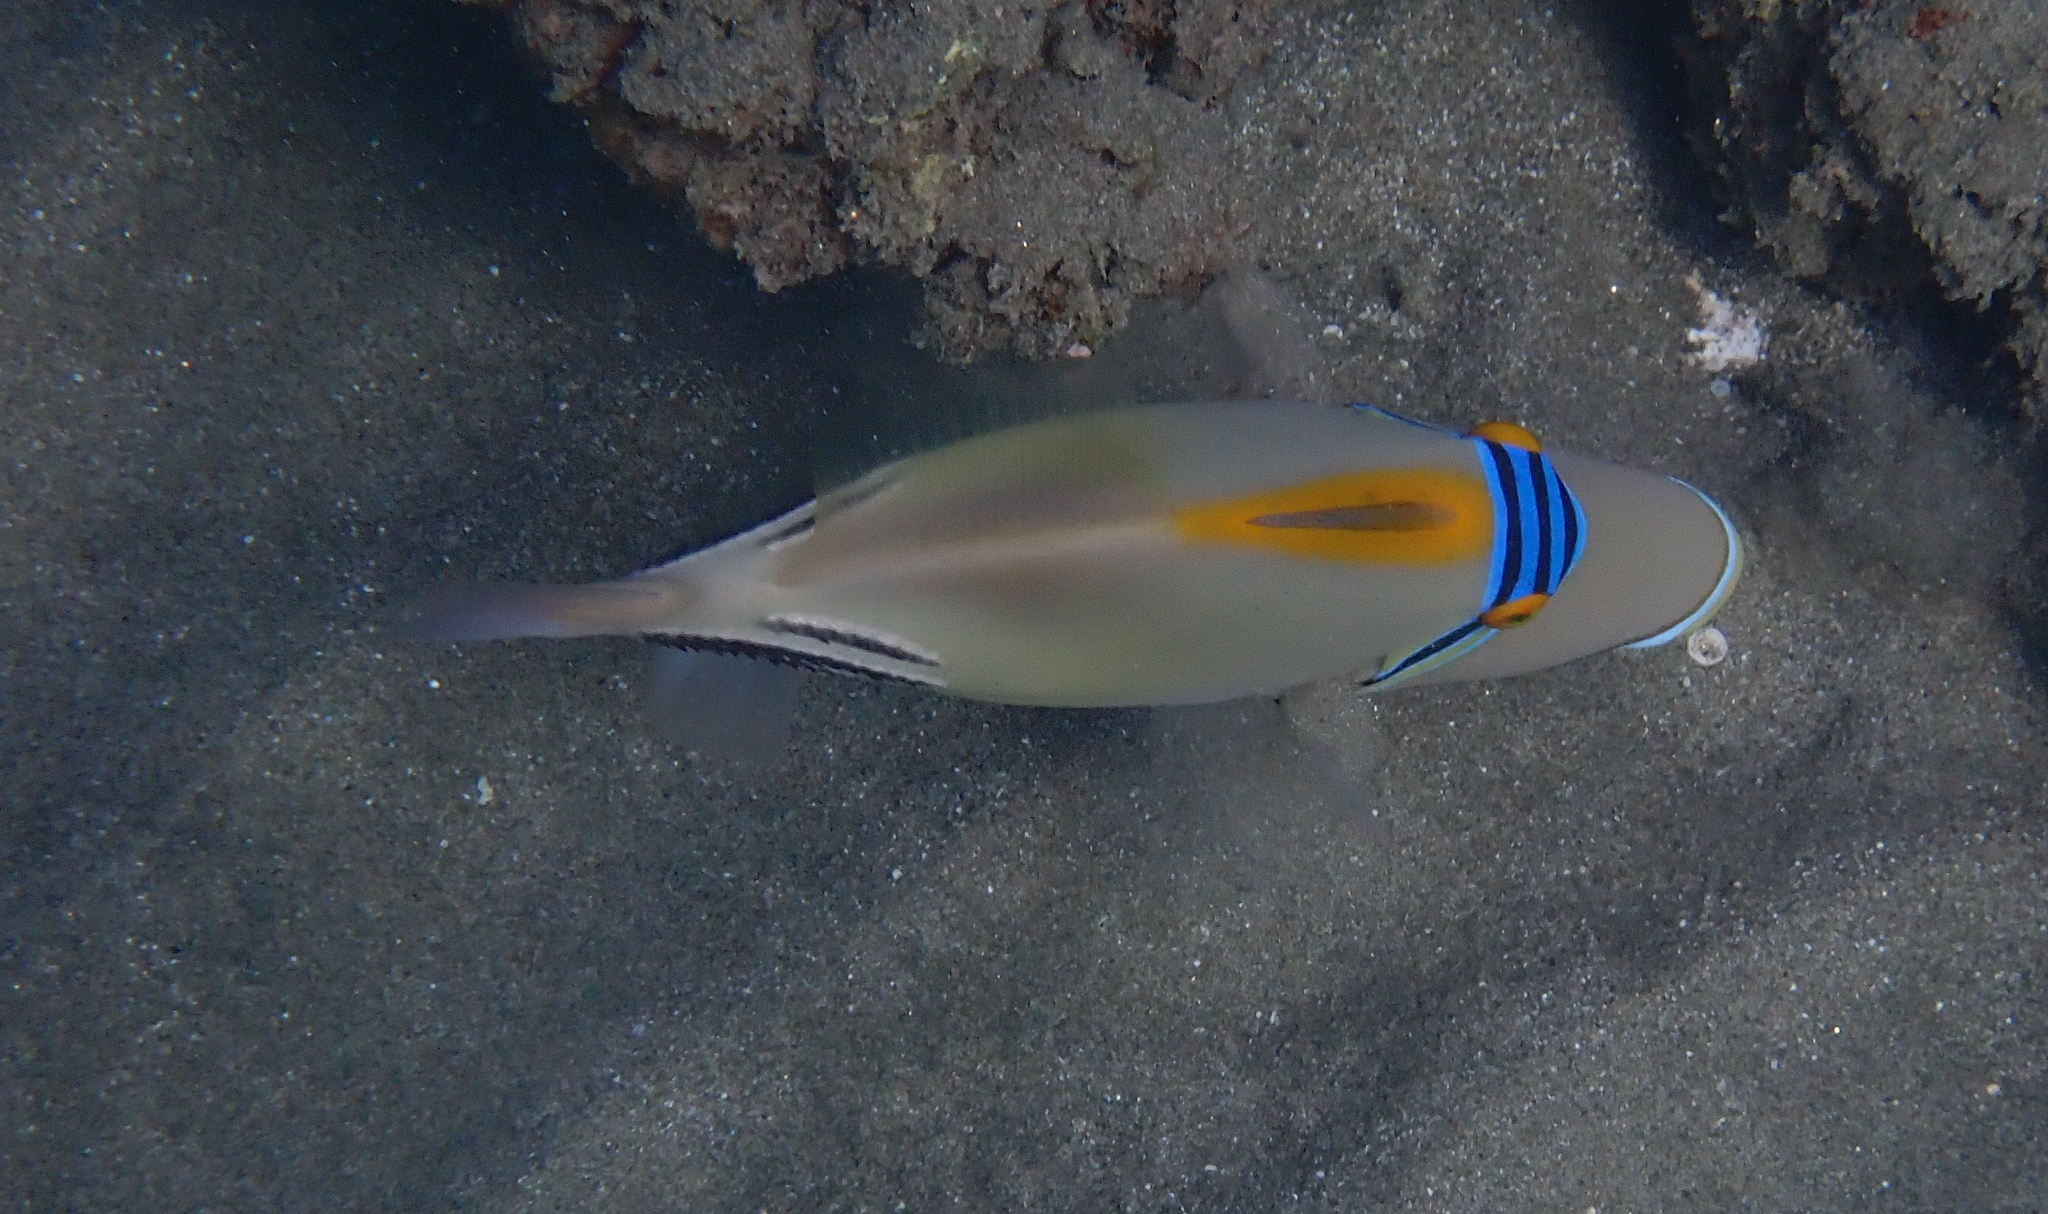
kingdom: Animalia
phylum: Chordata
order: Tetraodontiformes
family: Balistidae
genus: Rhinecanthus
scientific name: Rhinecanthus assasi
